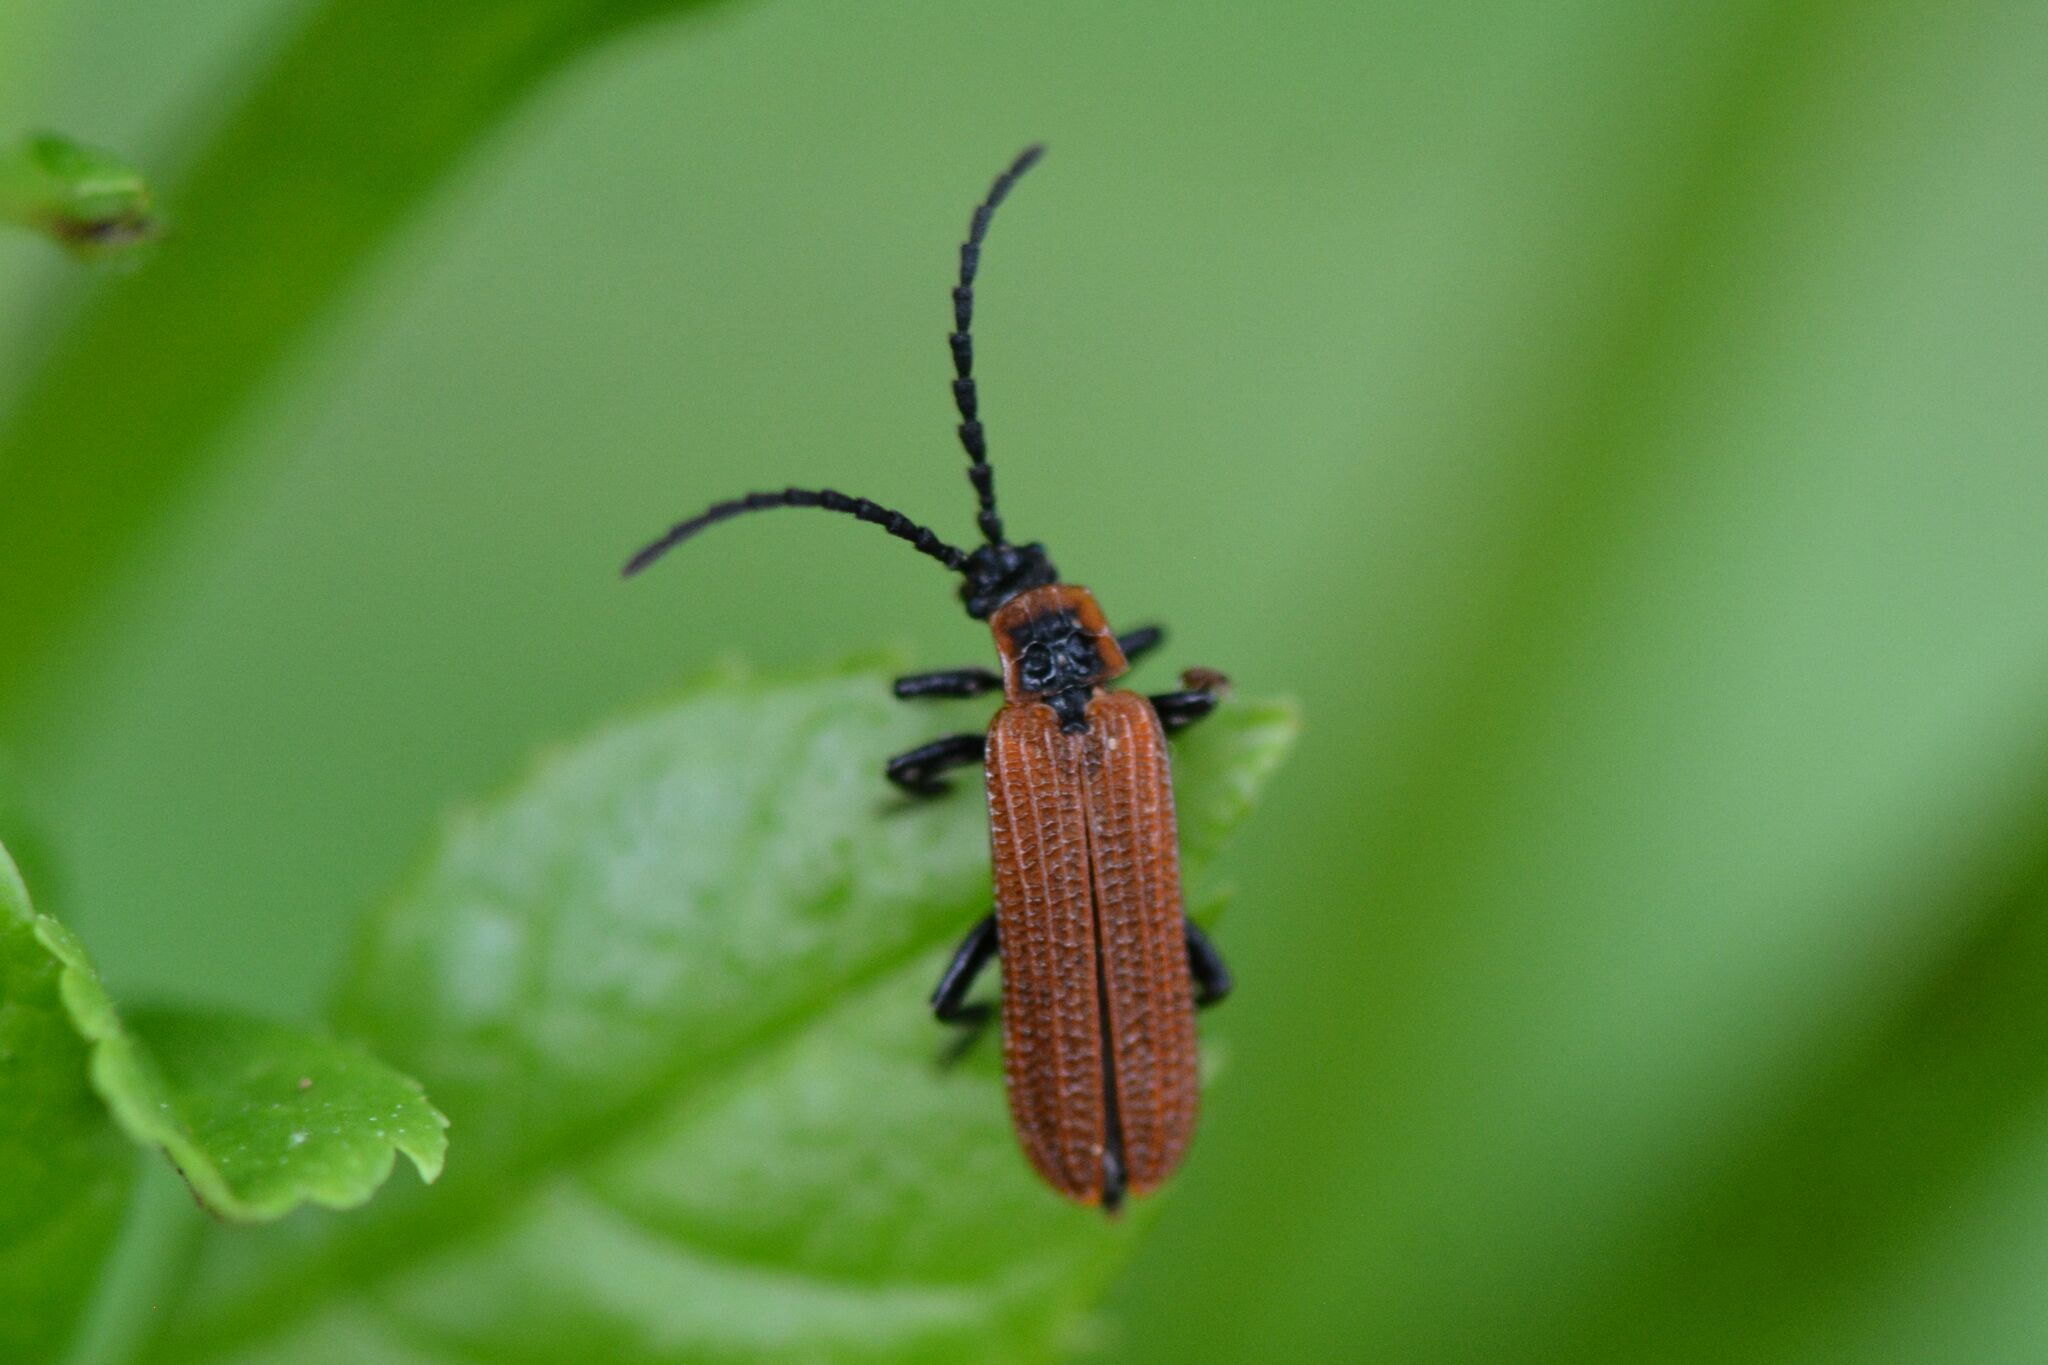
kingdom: Animalia
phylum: Arthropoda
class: Insecta
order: Coleoptera
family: Lycidae
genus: Erotides
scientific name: Erotides cosnardi
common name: Cosnard's net-winged beetle
